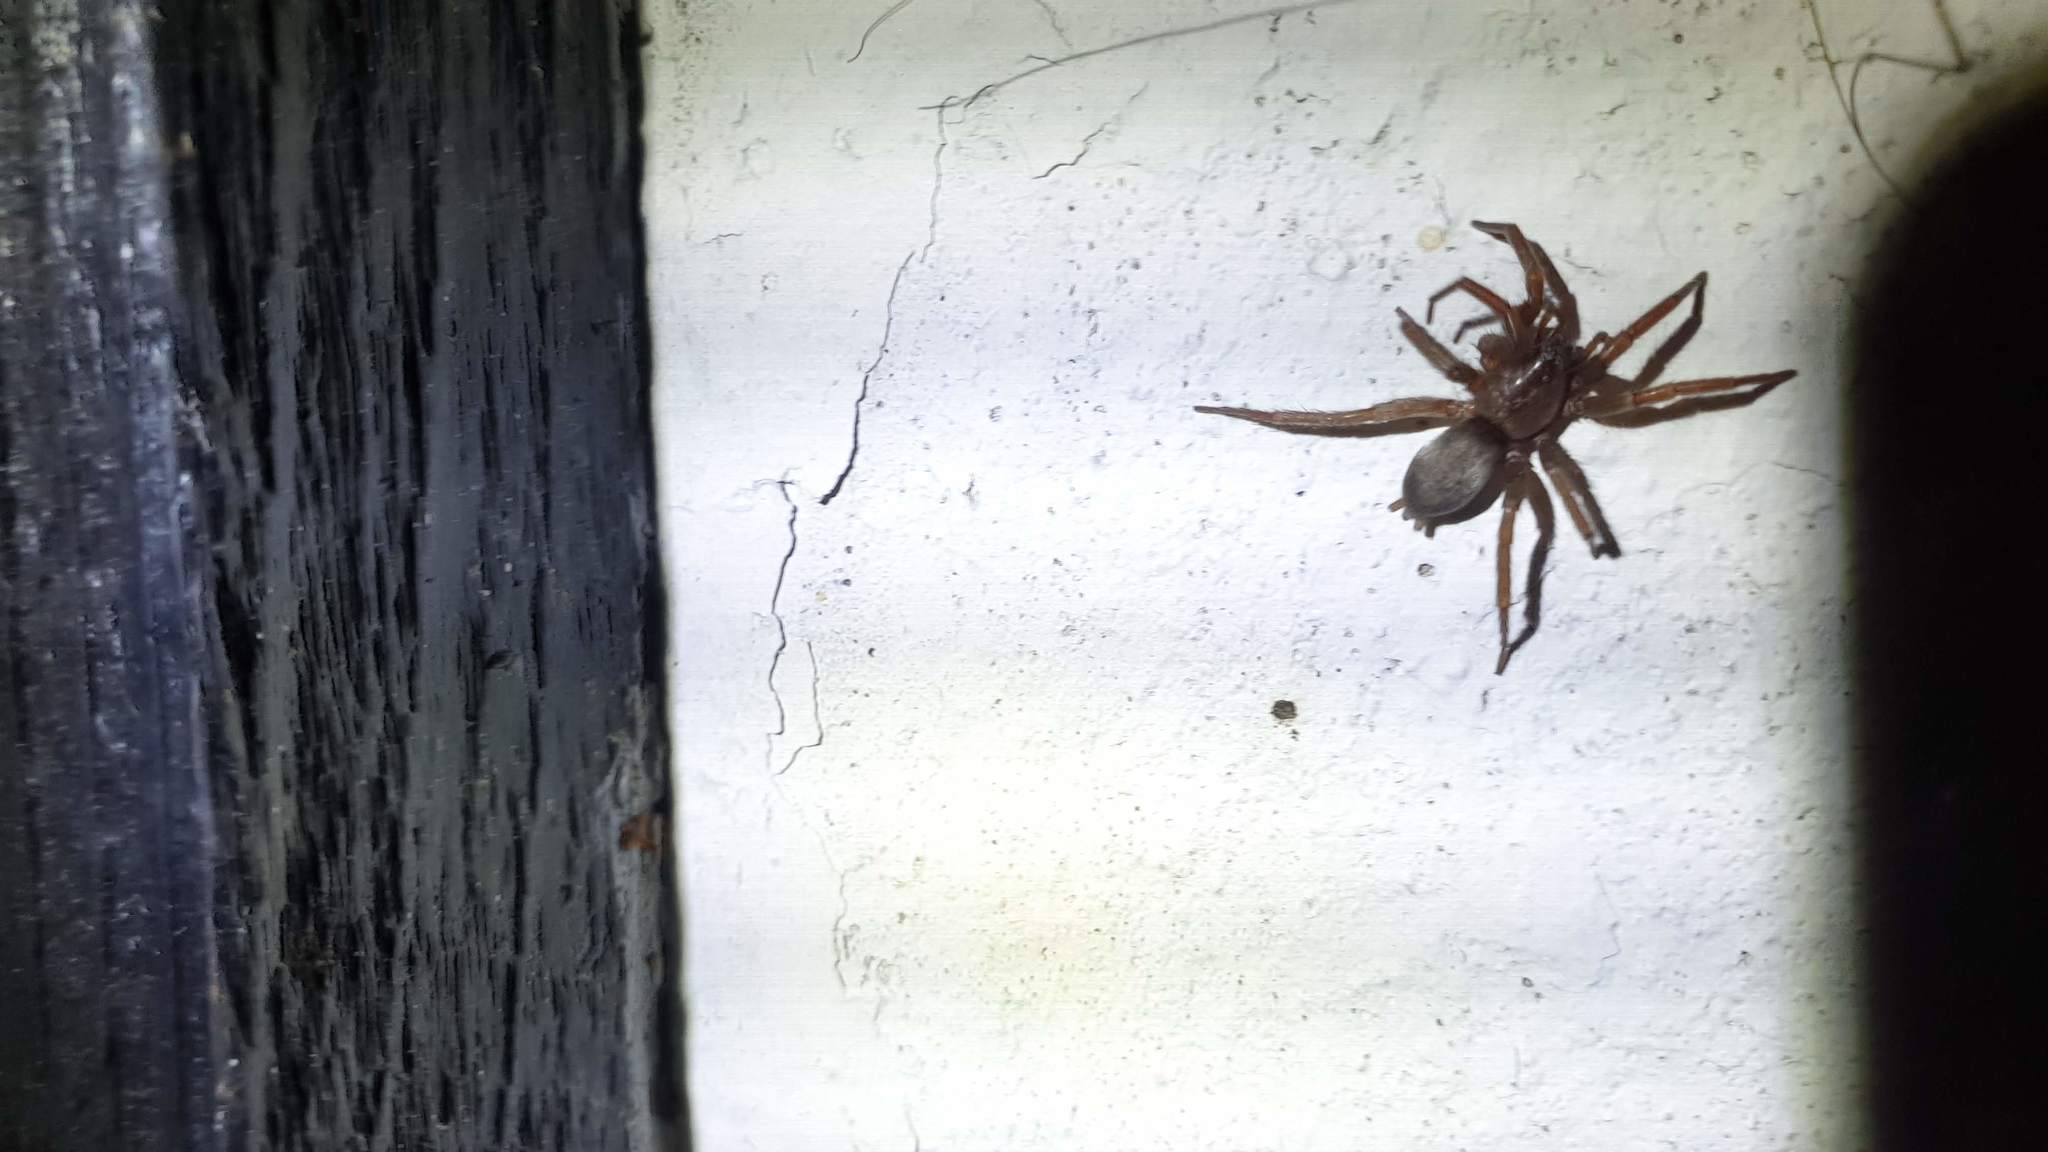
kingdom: Animalia
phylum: Arthropoda
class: Arachnida
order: Araneae
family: Gnaphosidae
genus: Scotophaeus
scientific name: Scotophaeus blackwalli
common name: Mouse spider
